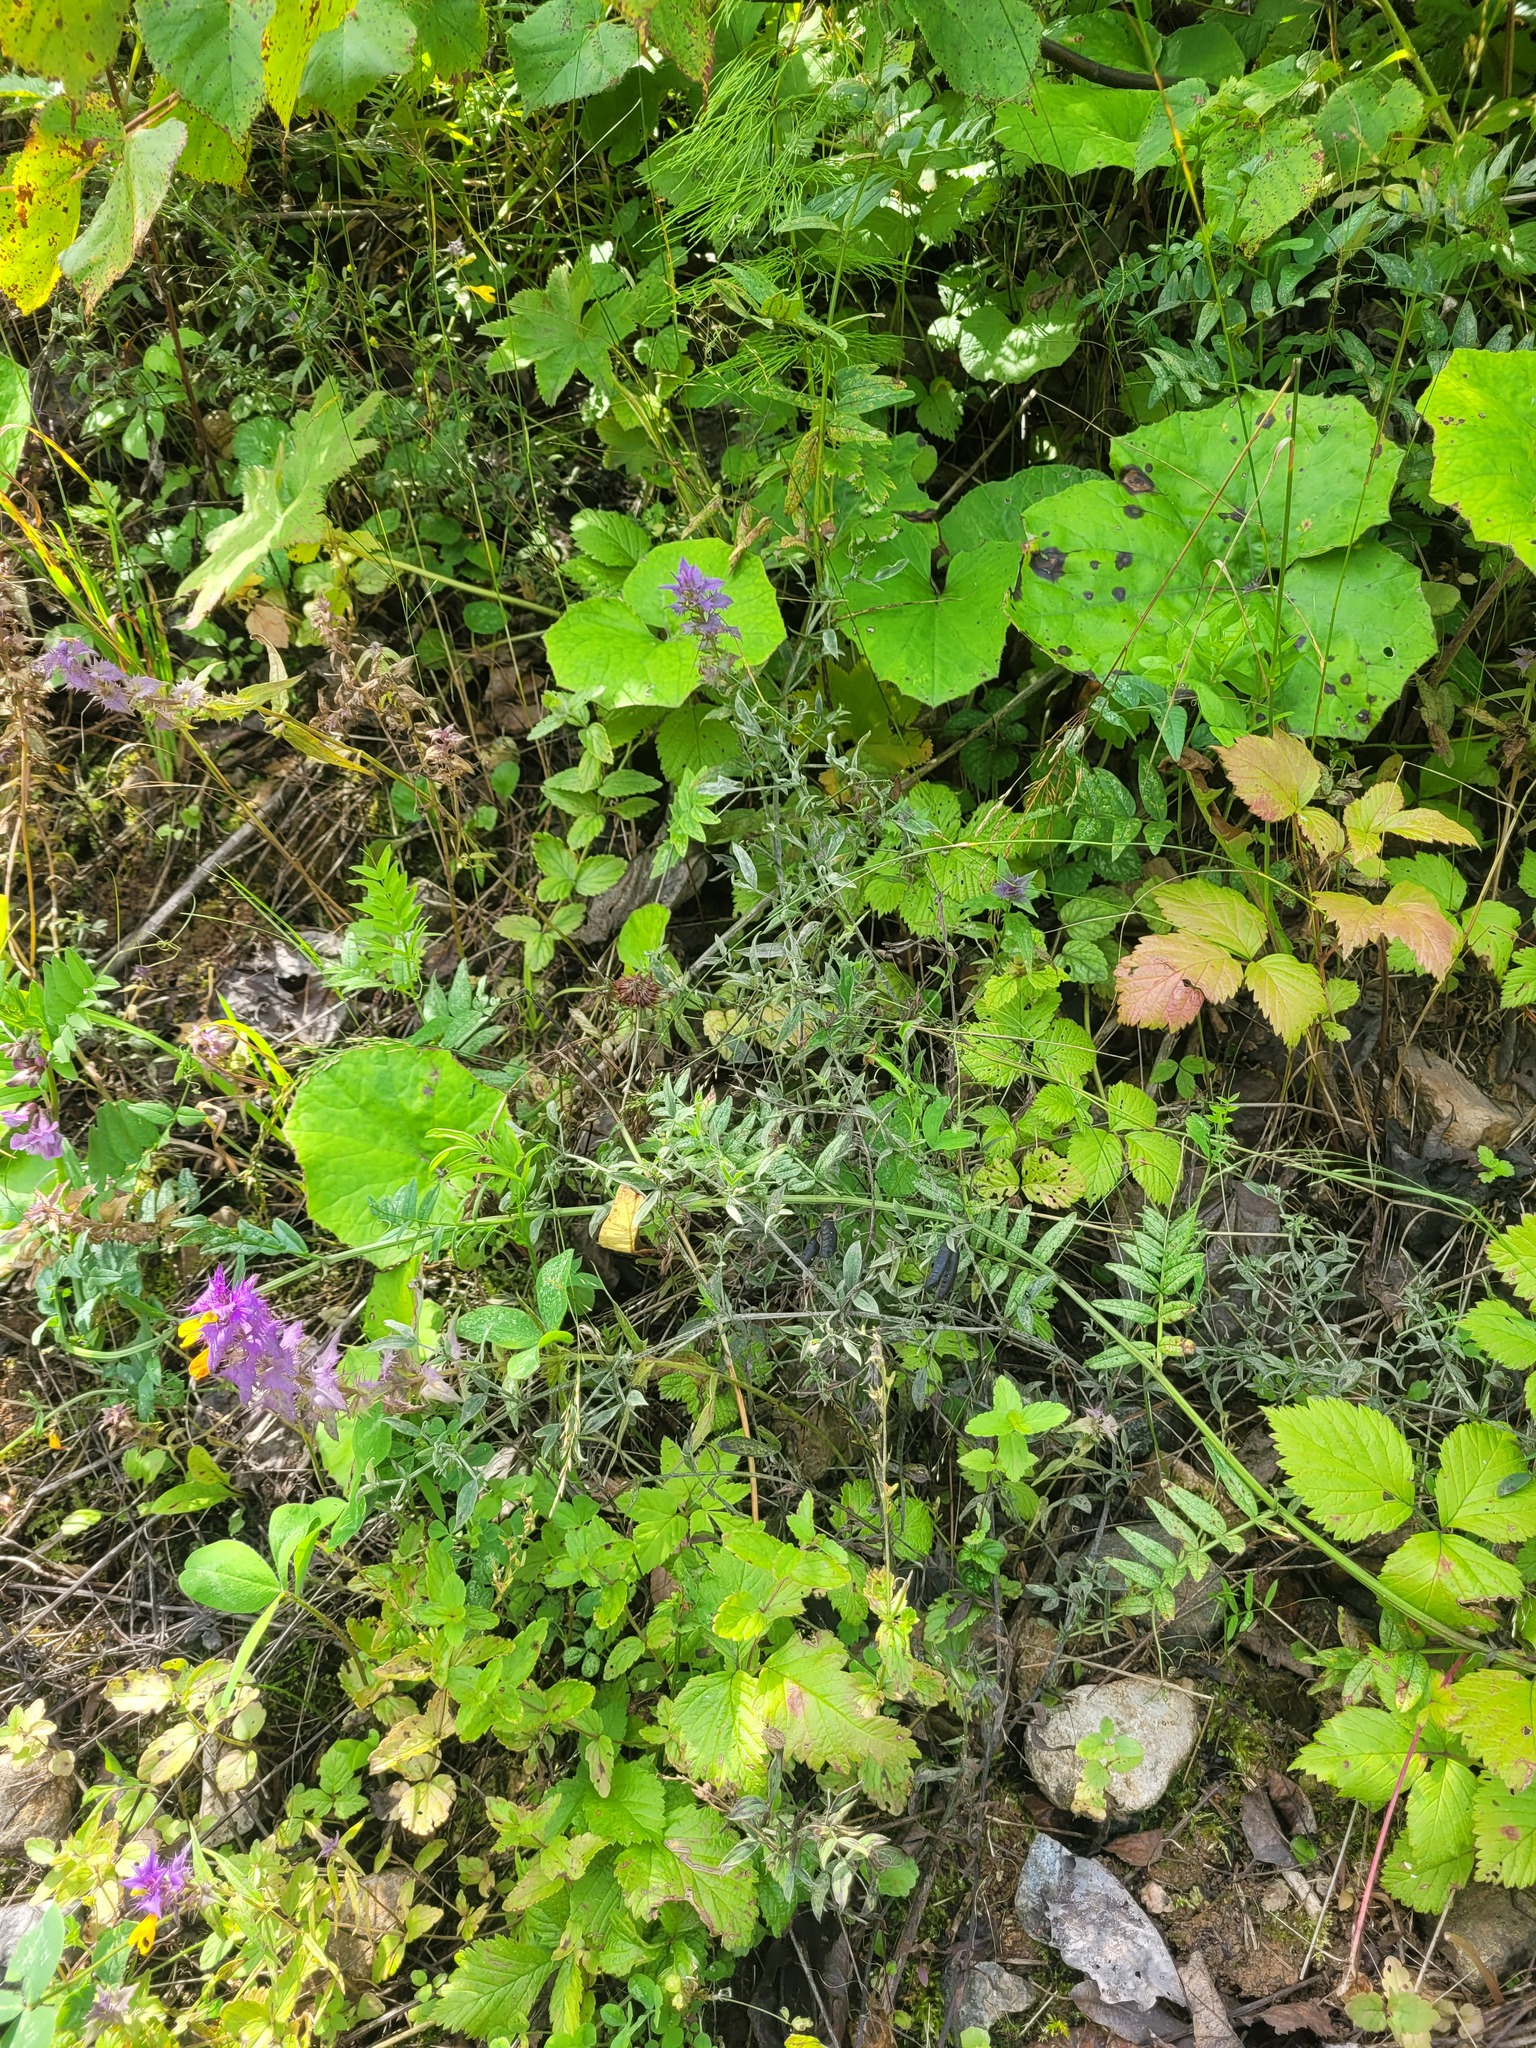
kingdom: Plantae
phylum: Tracheophyta
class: Magnoliopsida
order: Lamiales
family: Orobanchaceae
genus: Melampyrum
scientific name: Melampyrum nemorosum
